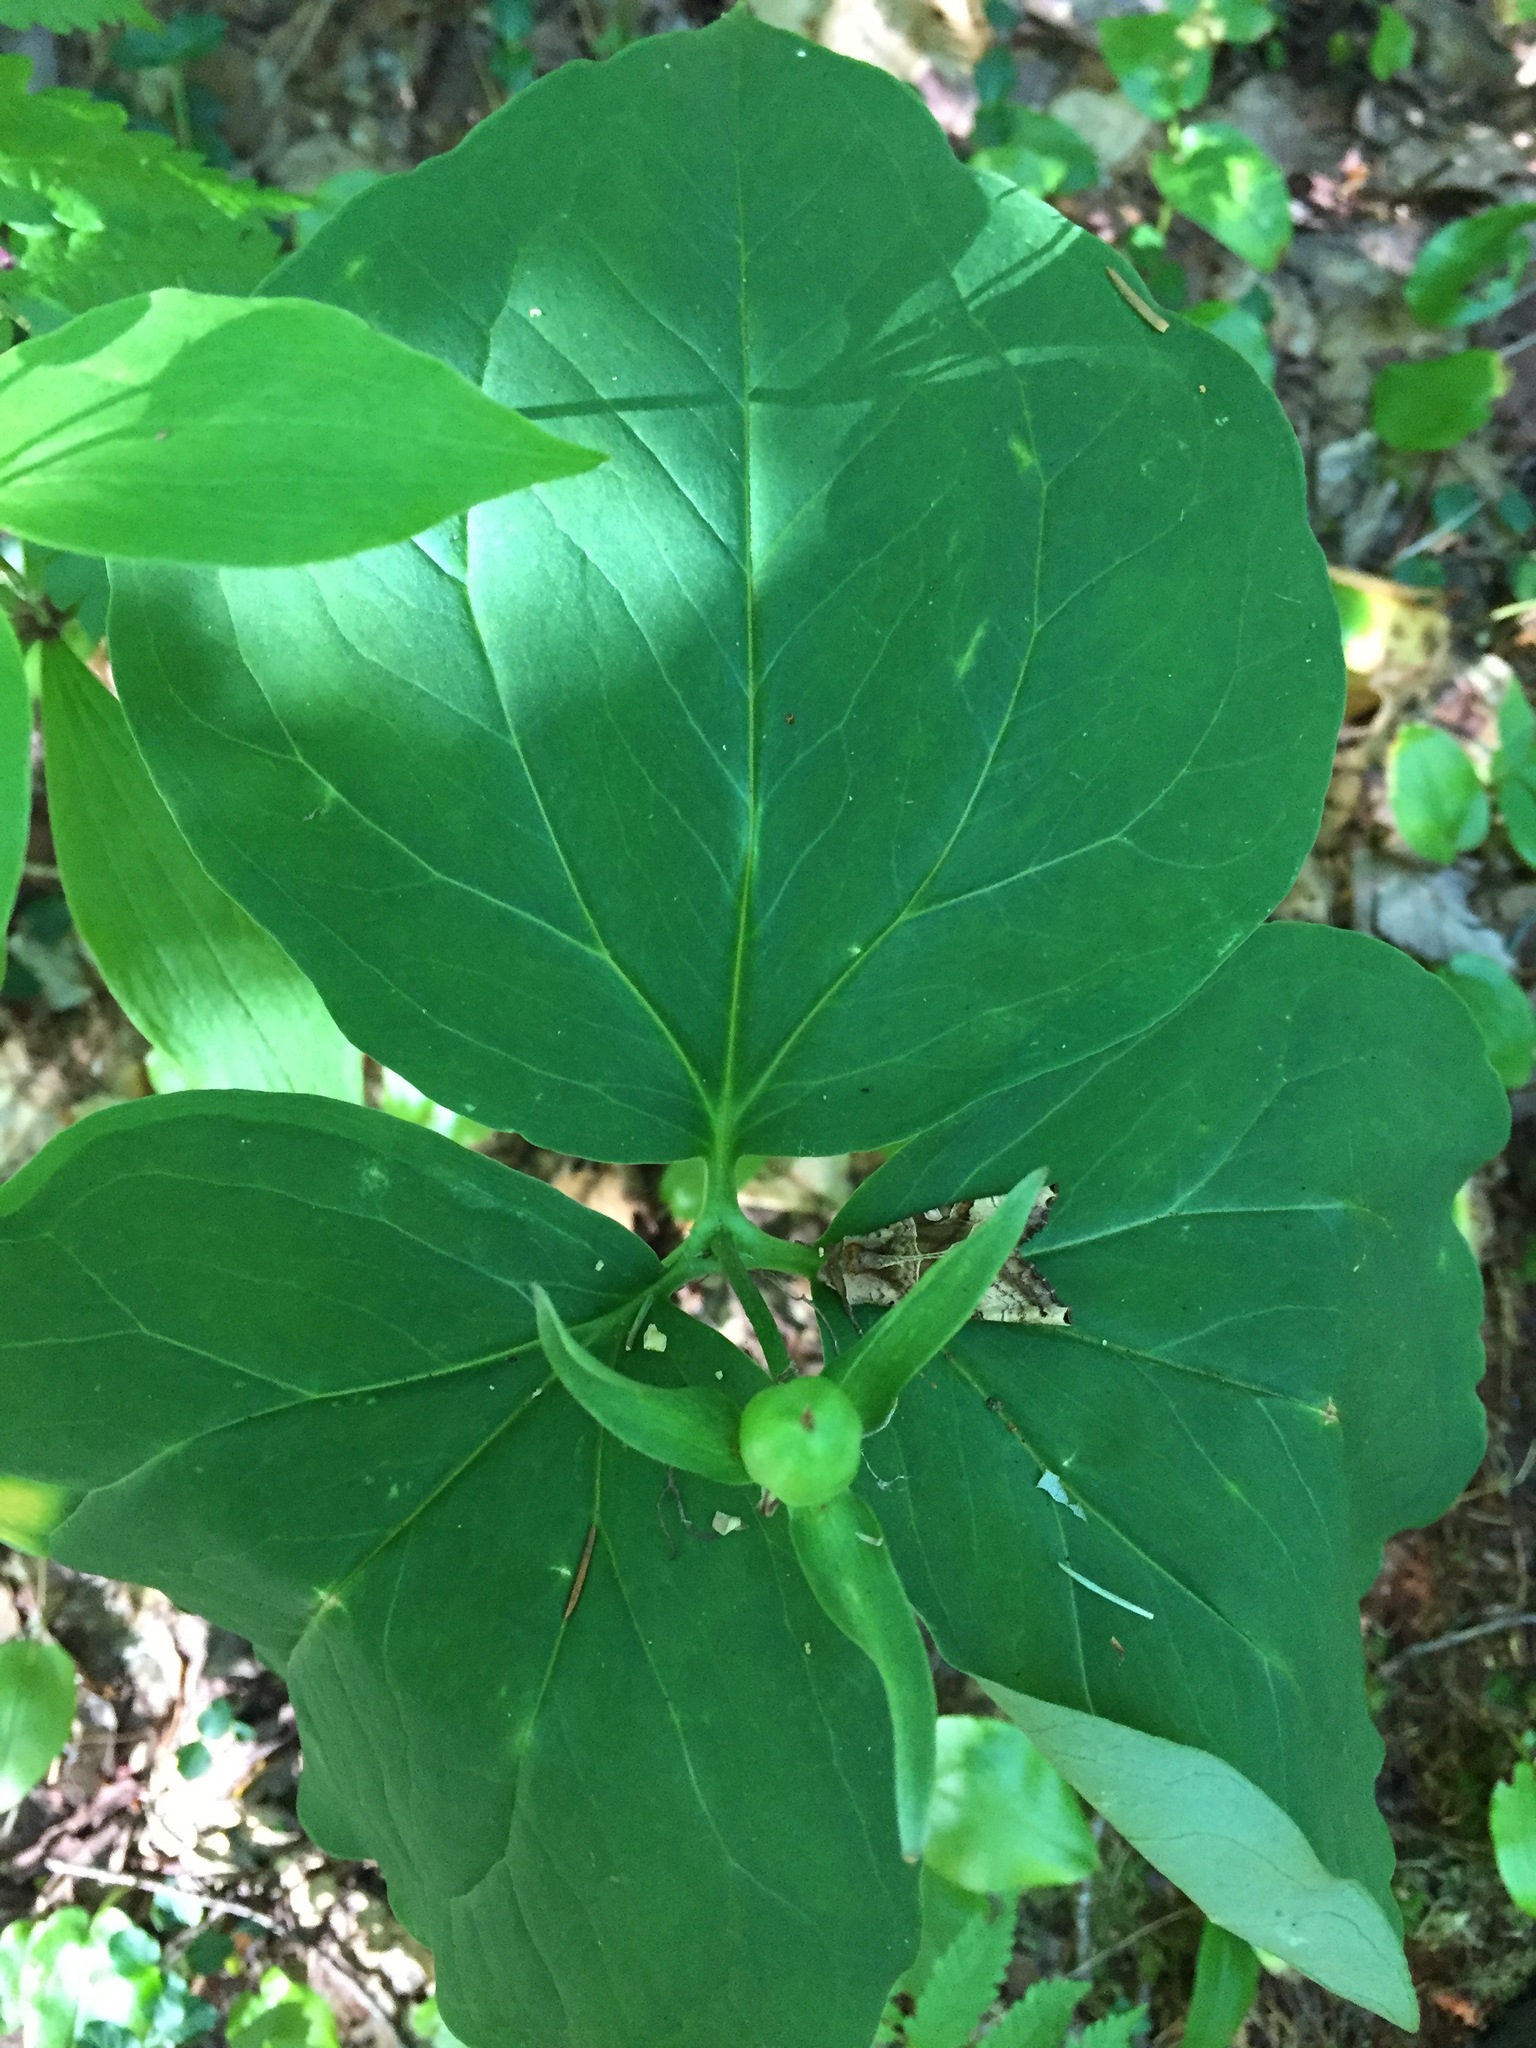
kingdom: Plantae
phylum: Tracheophyta
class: Liliopsida
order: Liliales
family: Melanthiaceae
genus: Trillium
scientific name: Trillium undulatum
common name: Paint trillium
